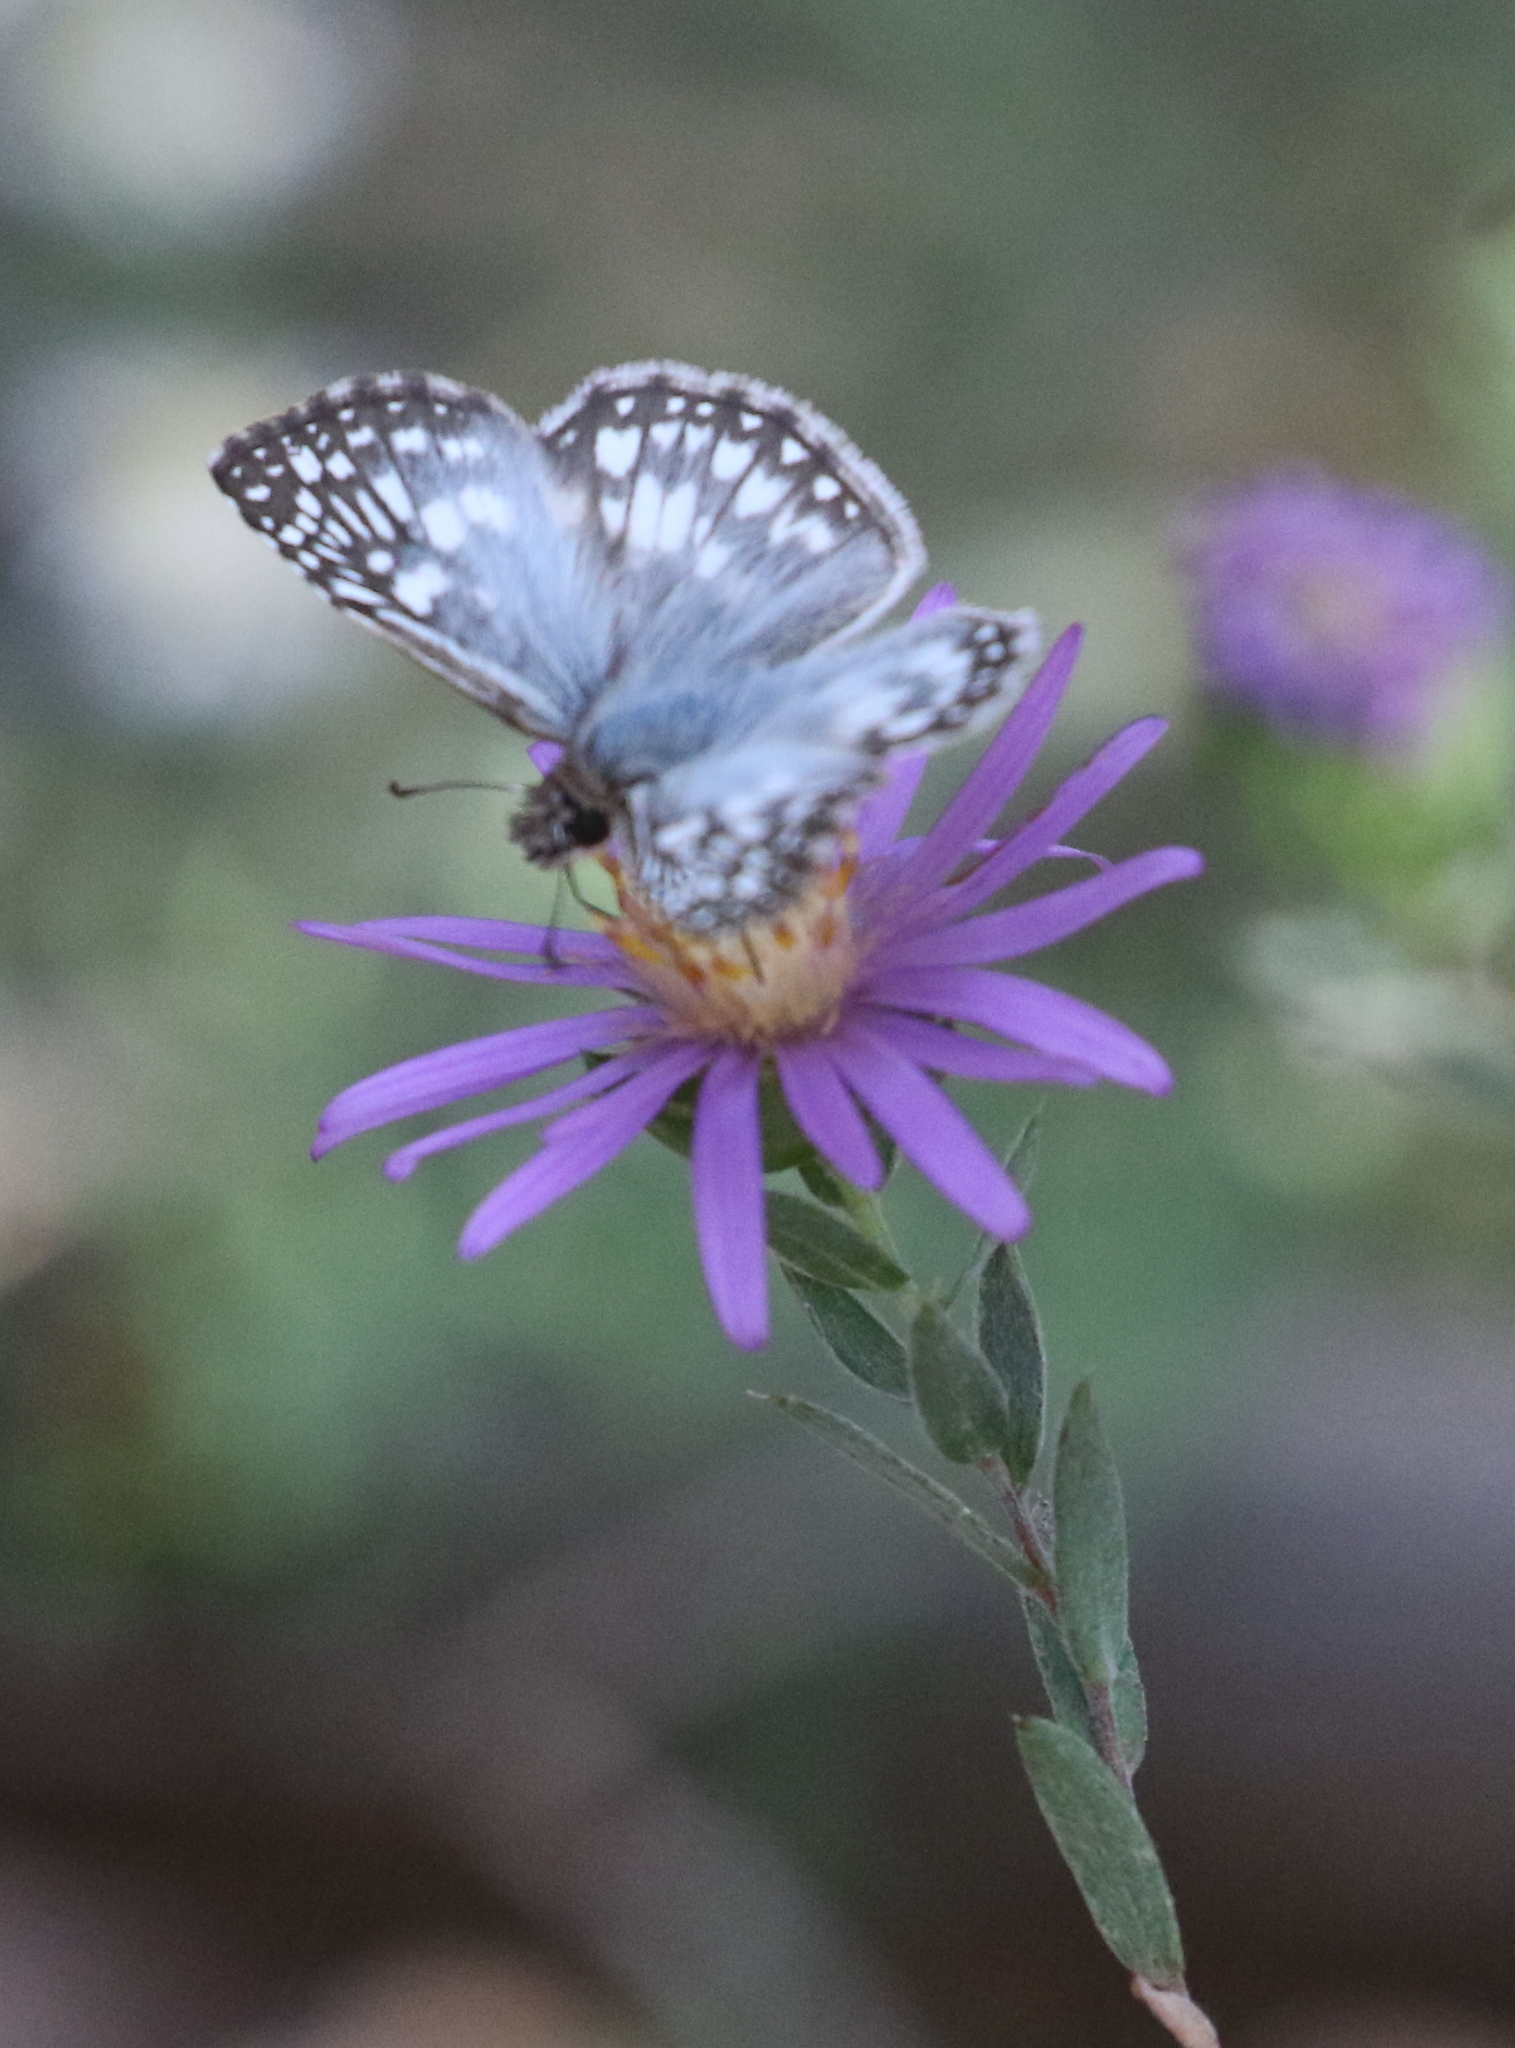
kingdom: Animalia
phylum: Arthropoda
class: Insecta
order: Lepidoptera
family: Hesperiidae
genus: Pyrgus
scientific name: Pyrgus oileus
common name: Tropical checkered-skipper
